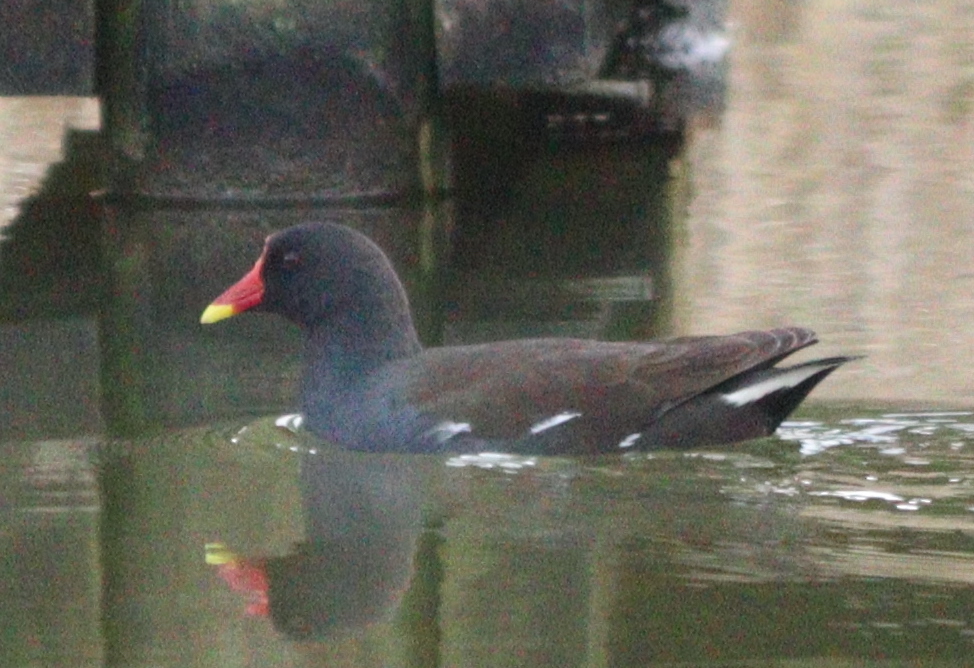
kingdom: Animalia
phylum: Chordata
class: Aves
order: Gruiformes
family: Rallidae
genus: Gallinula
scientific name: Gallinula chloropus
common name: Common moorhen
